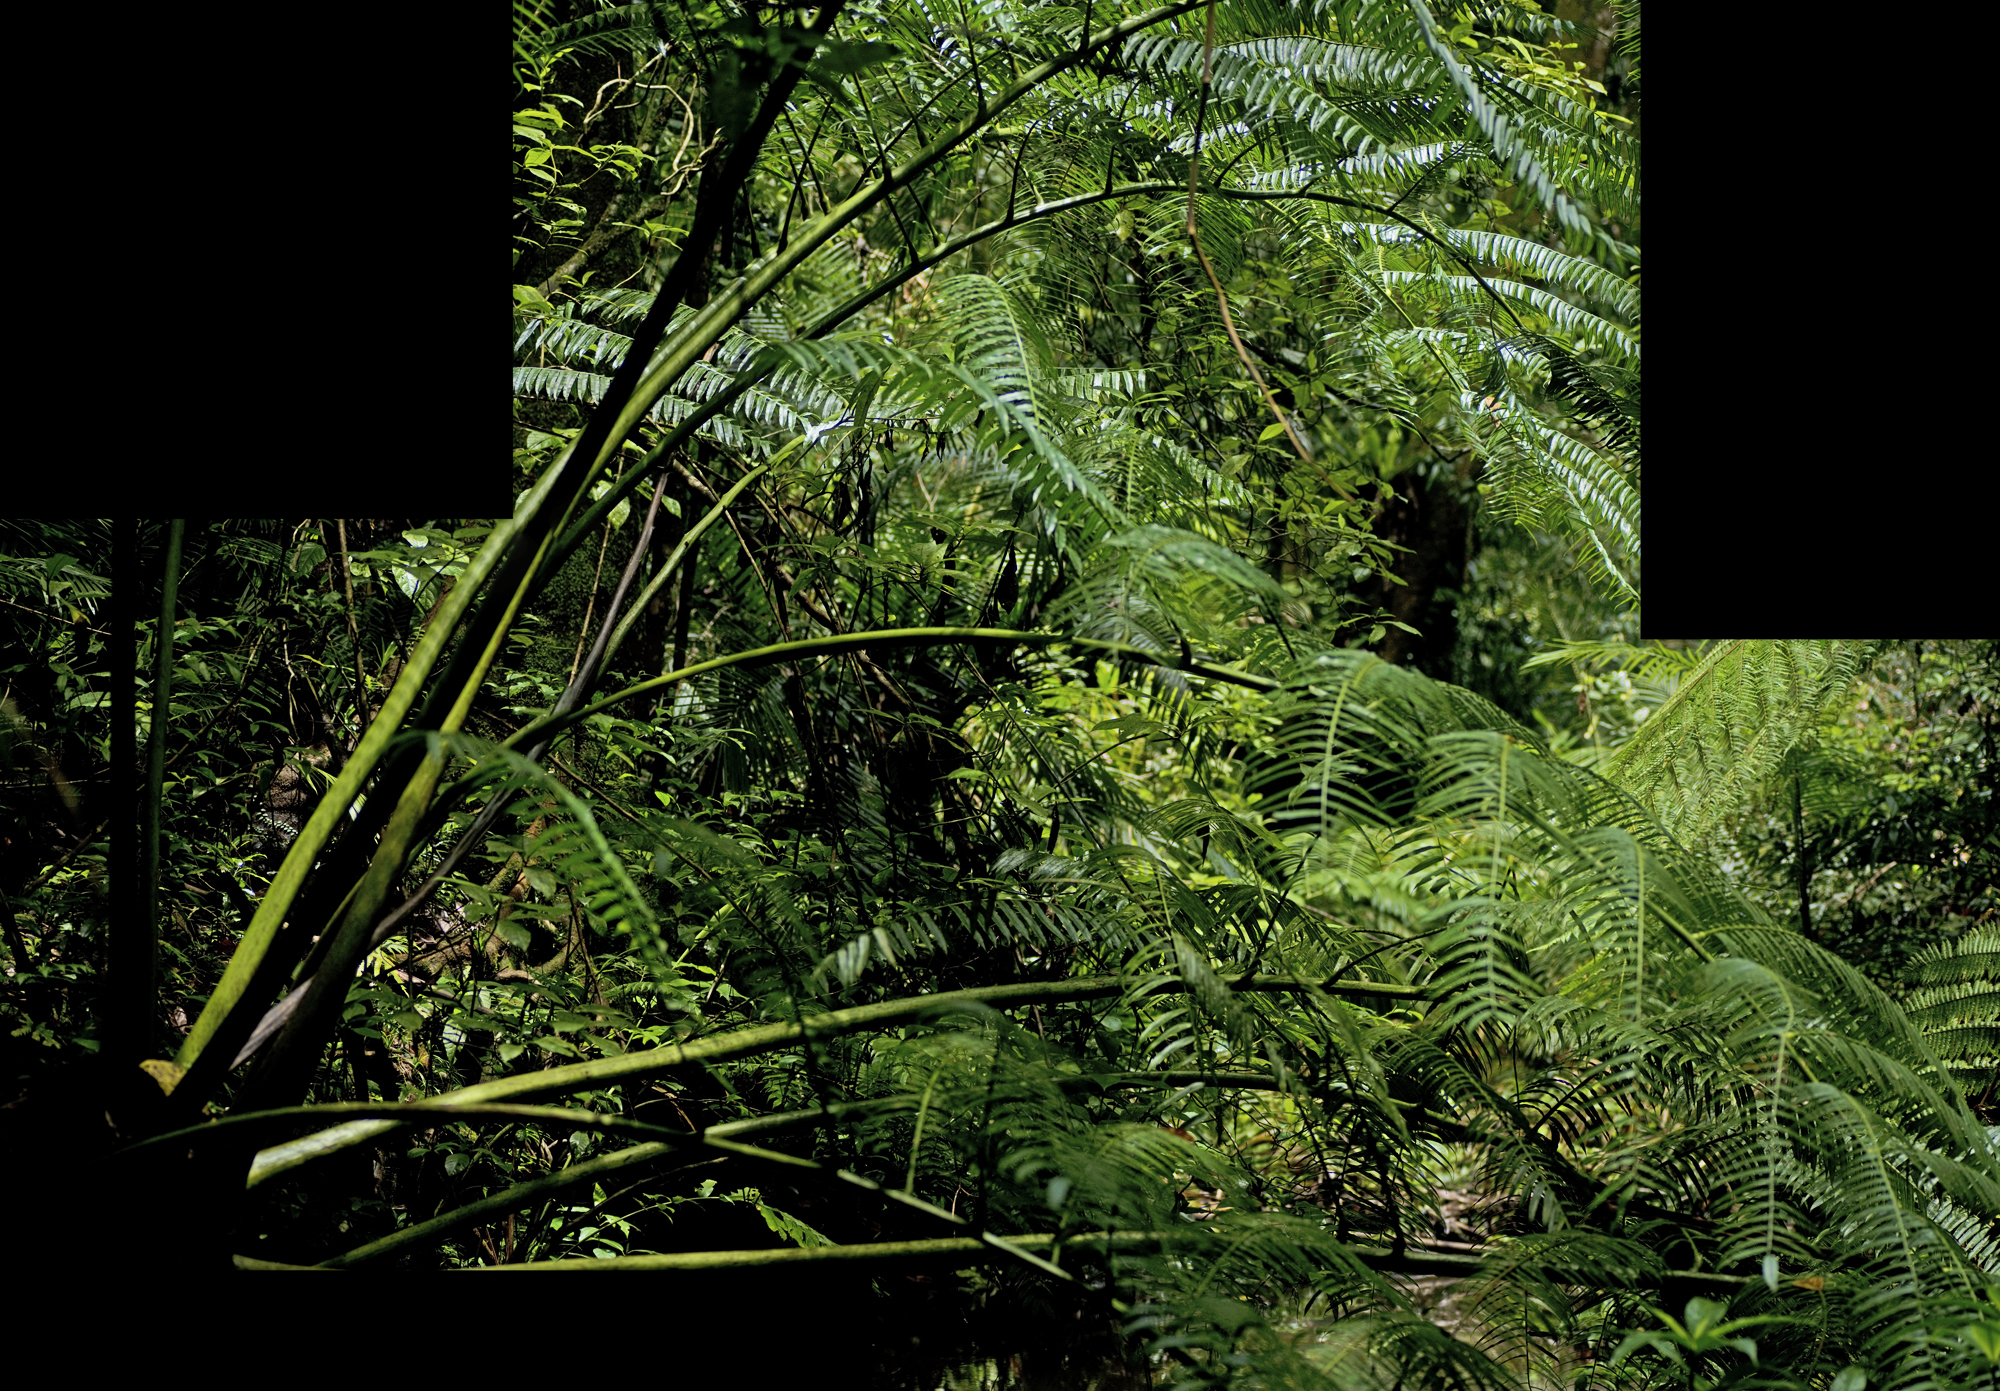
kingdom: Plantae
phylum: Tracheophyta
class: Polypodiopsida
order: Marattiales
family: Marattiaceae
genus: Angiopteris
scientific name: Angiopteris evecta
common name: Mule's-foot fern
